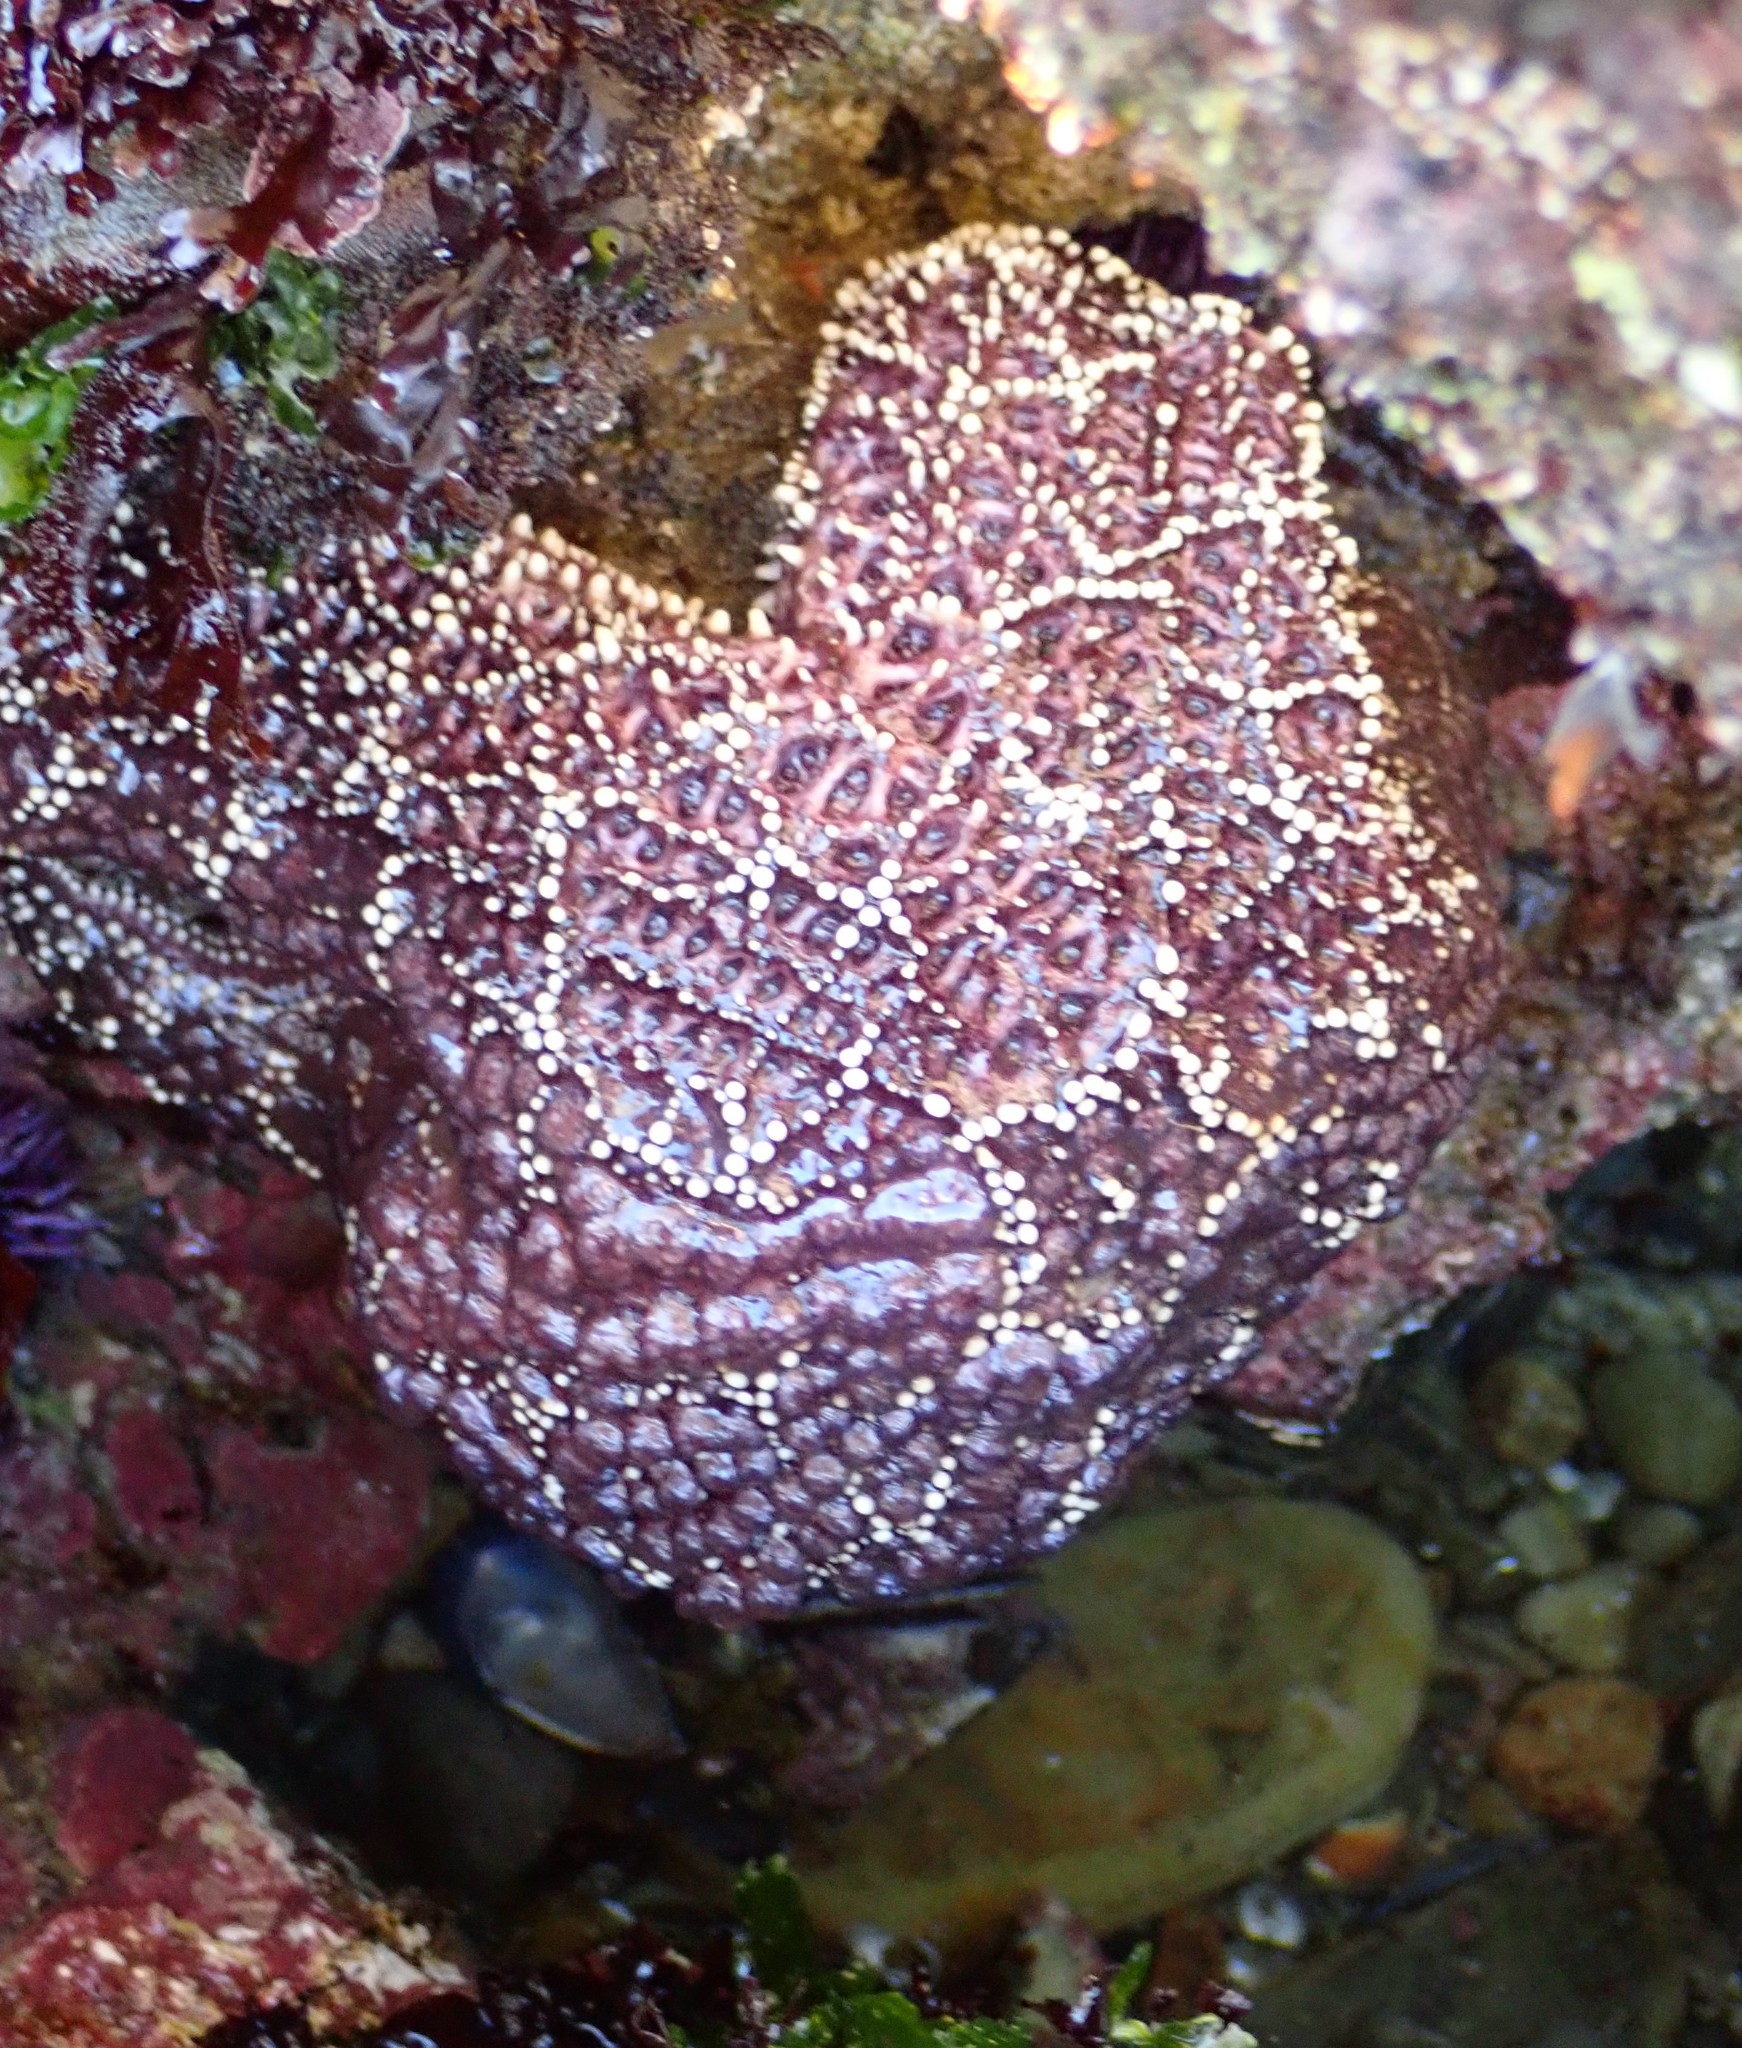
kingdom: Animalia
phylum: Echinodermata
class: Asteroidea
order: Forcipulatida
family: Asteriidae
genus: Pisaster
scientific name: Pisaster ochraceus
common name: Ochre stars
